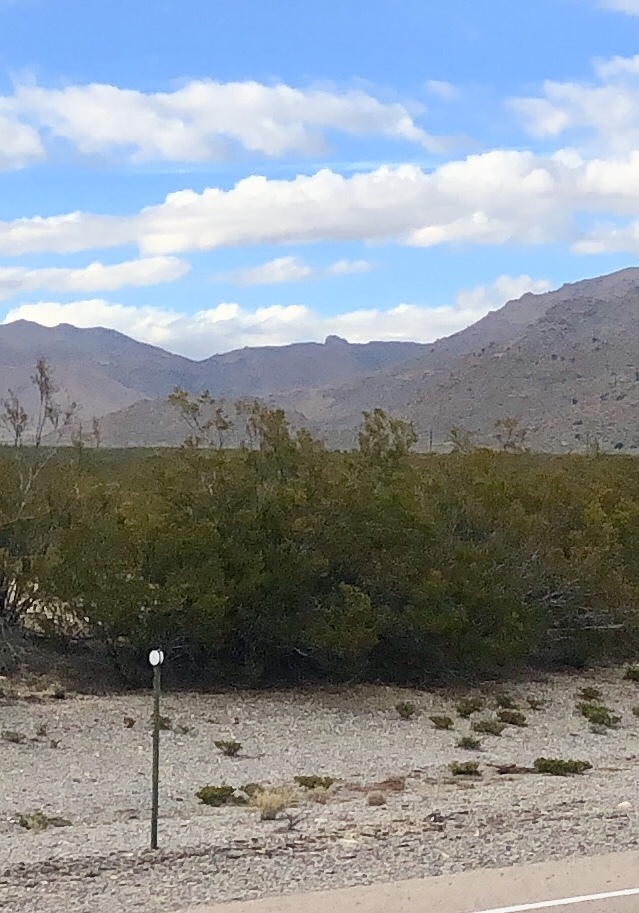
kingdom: Plantae
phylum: Tracheophyta
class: Magnoliopsida
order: Zygophyllales
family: Zygophyllaceae
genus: Larrea
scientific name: Larrea tridentata
